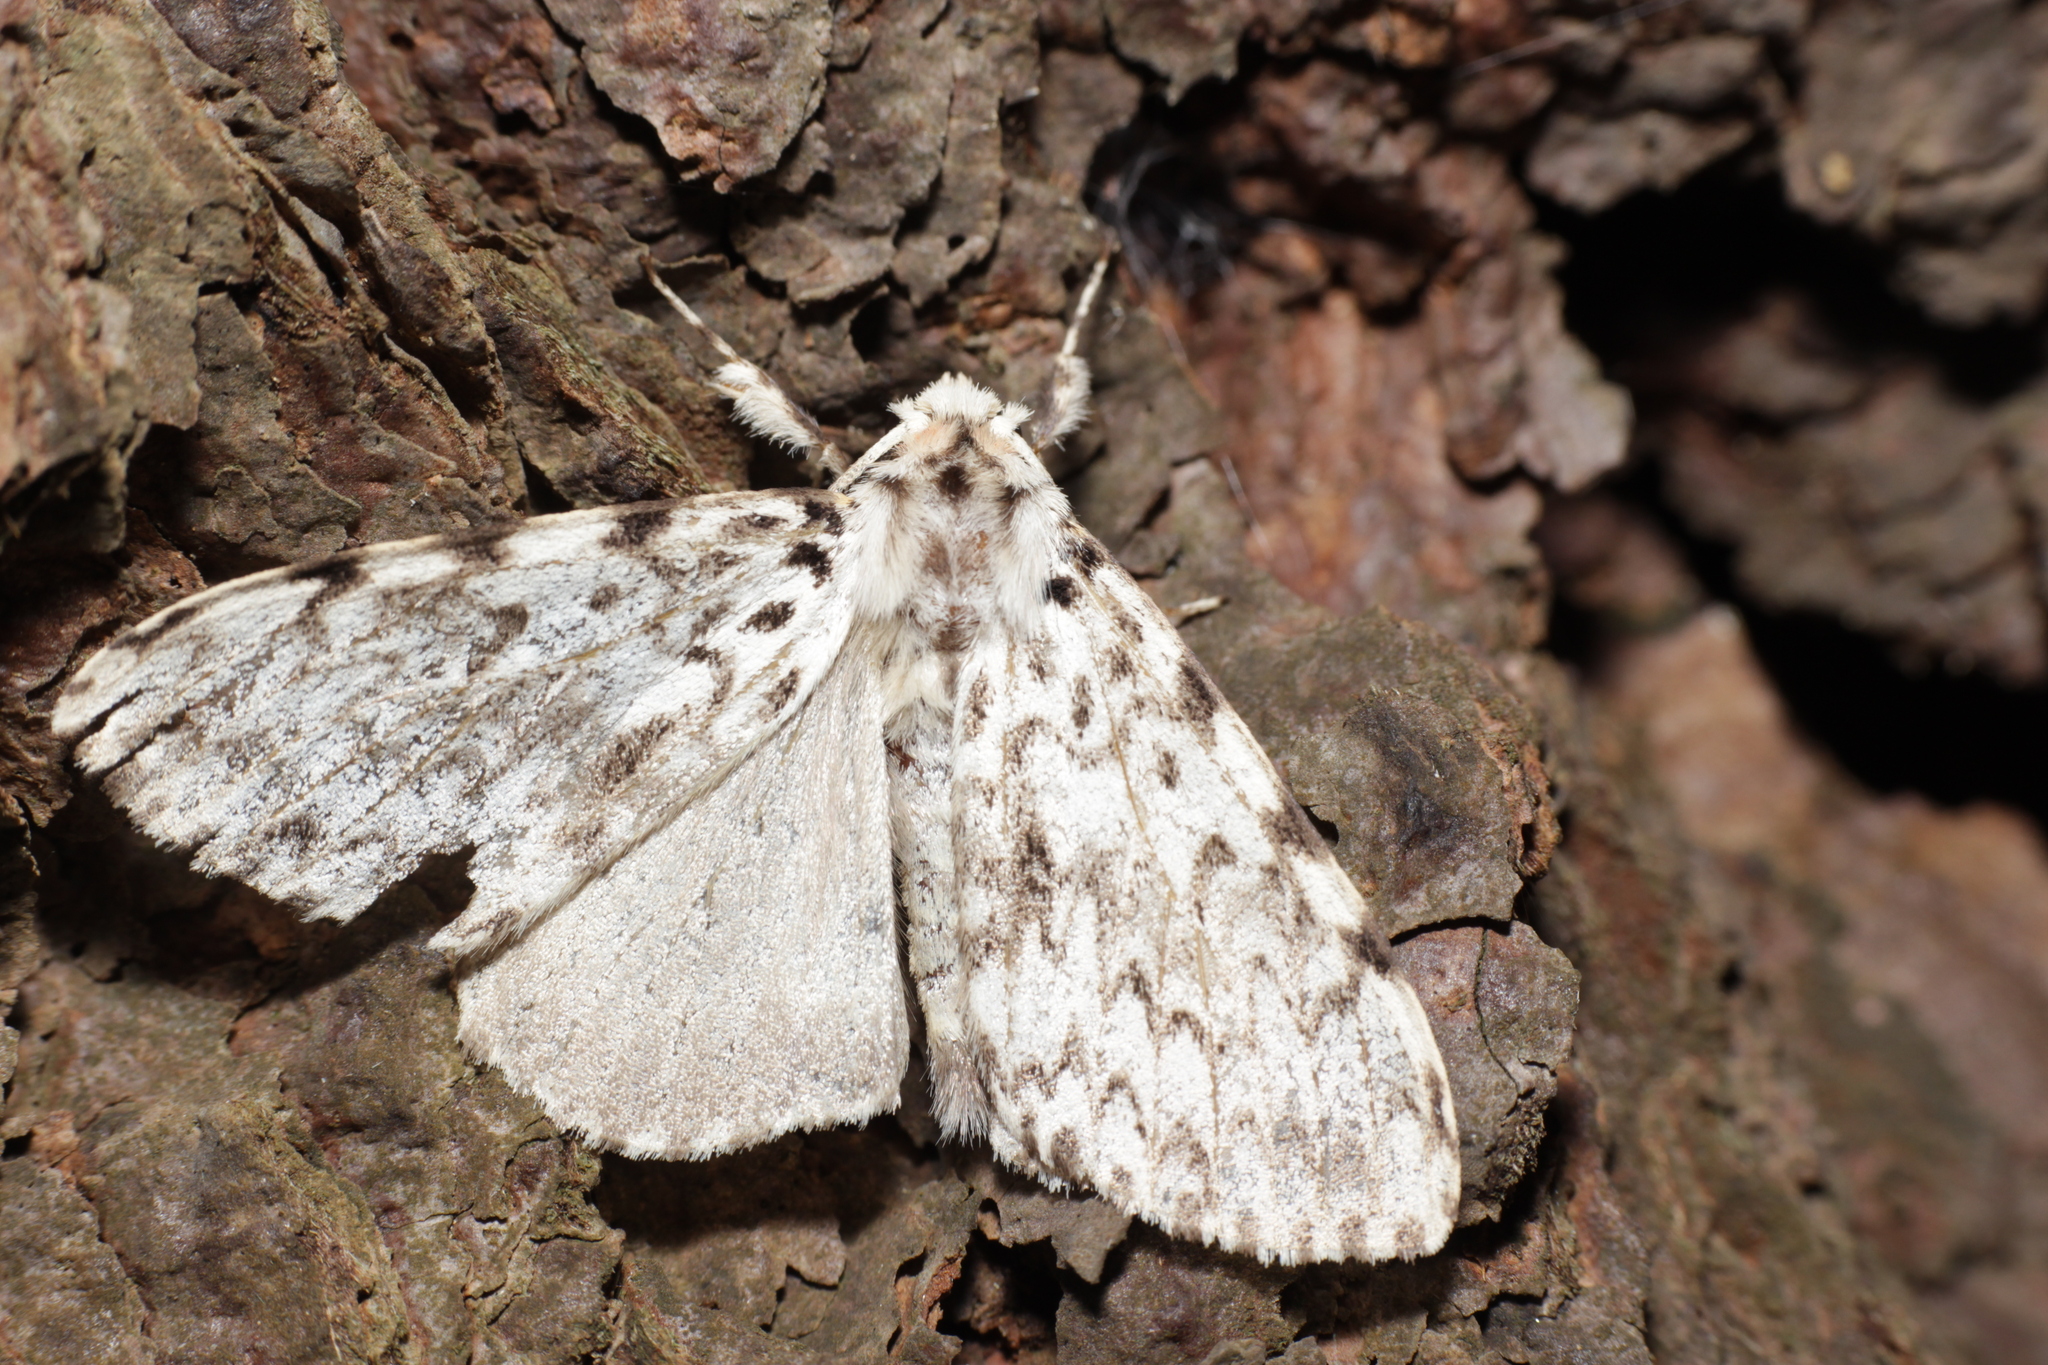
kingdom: Animalia
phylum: Arthropoda
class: Insecta
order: Lepidoptera
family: Erebidae
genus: Lymantria
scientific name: Lymantria monacha
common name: Black arches
